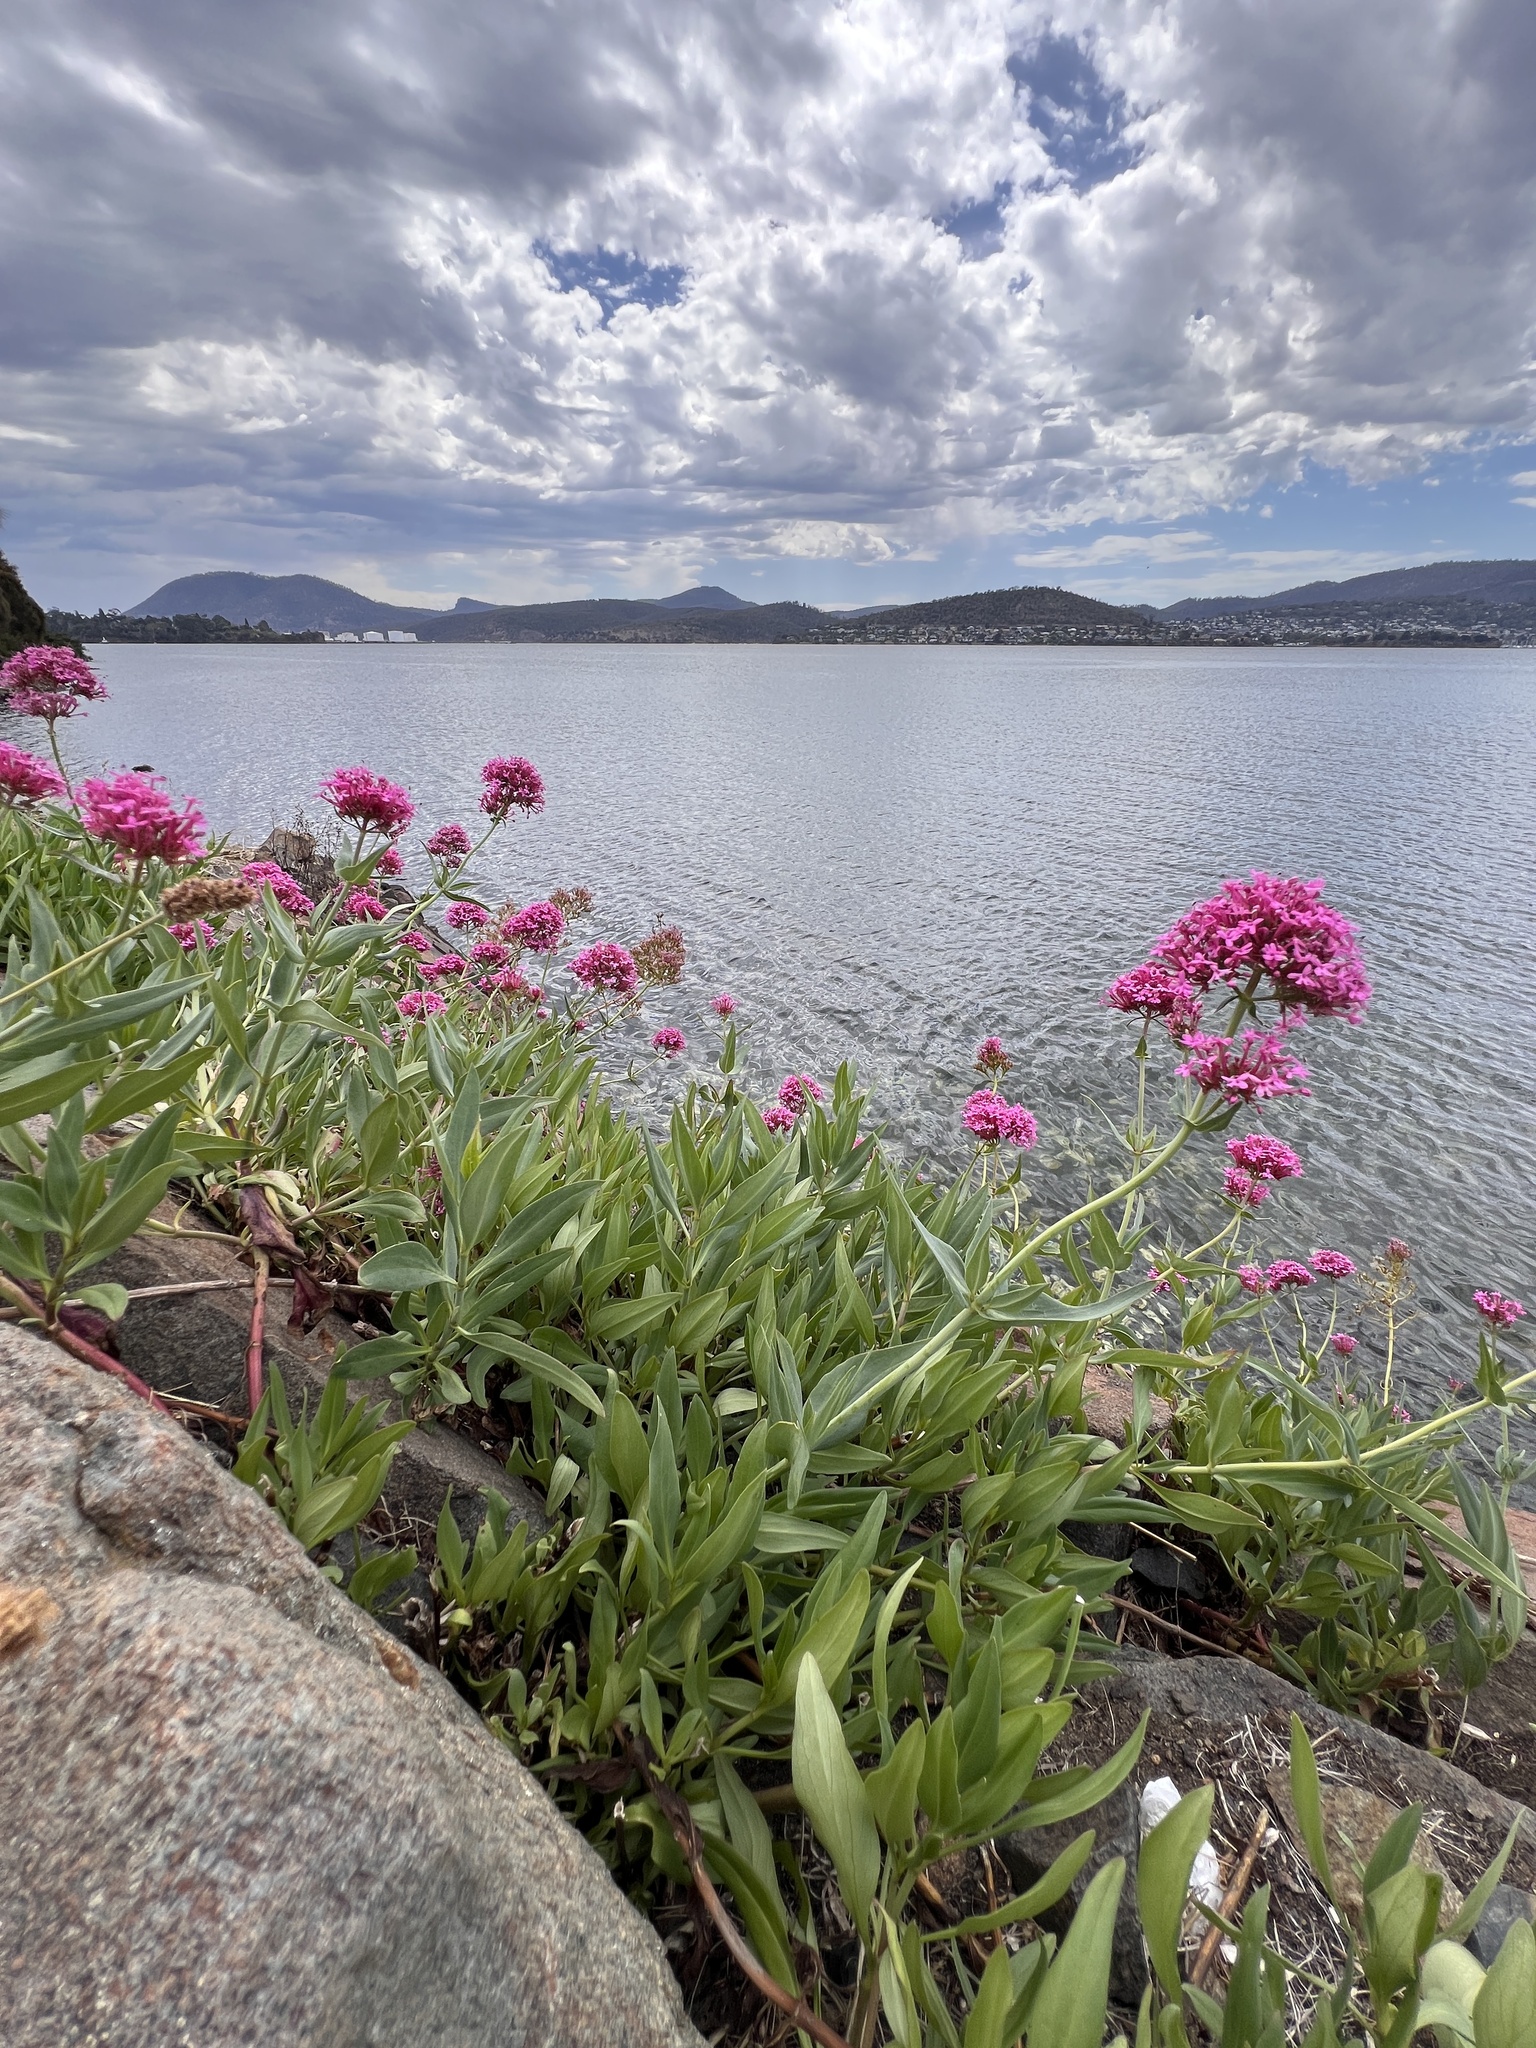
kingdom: Plantae
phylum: Tracheophyta
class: Magnoliopsida
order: Dipsacales
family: Caprifoliaceae
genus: Centranthus
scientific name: Centranthus ruber
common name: Red valerian
